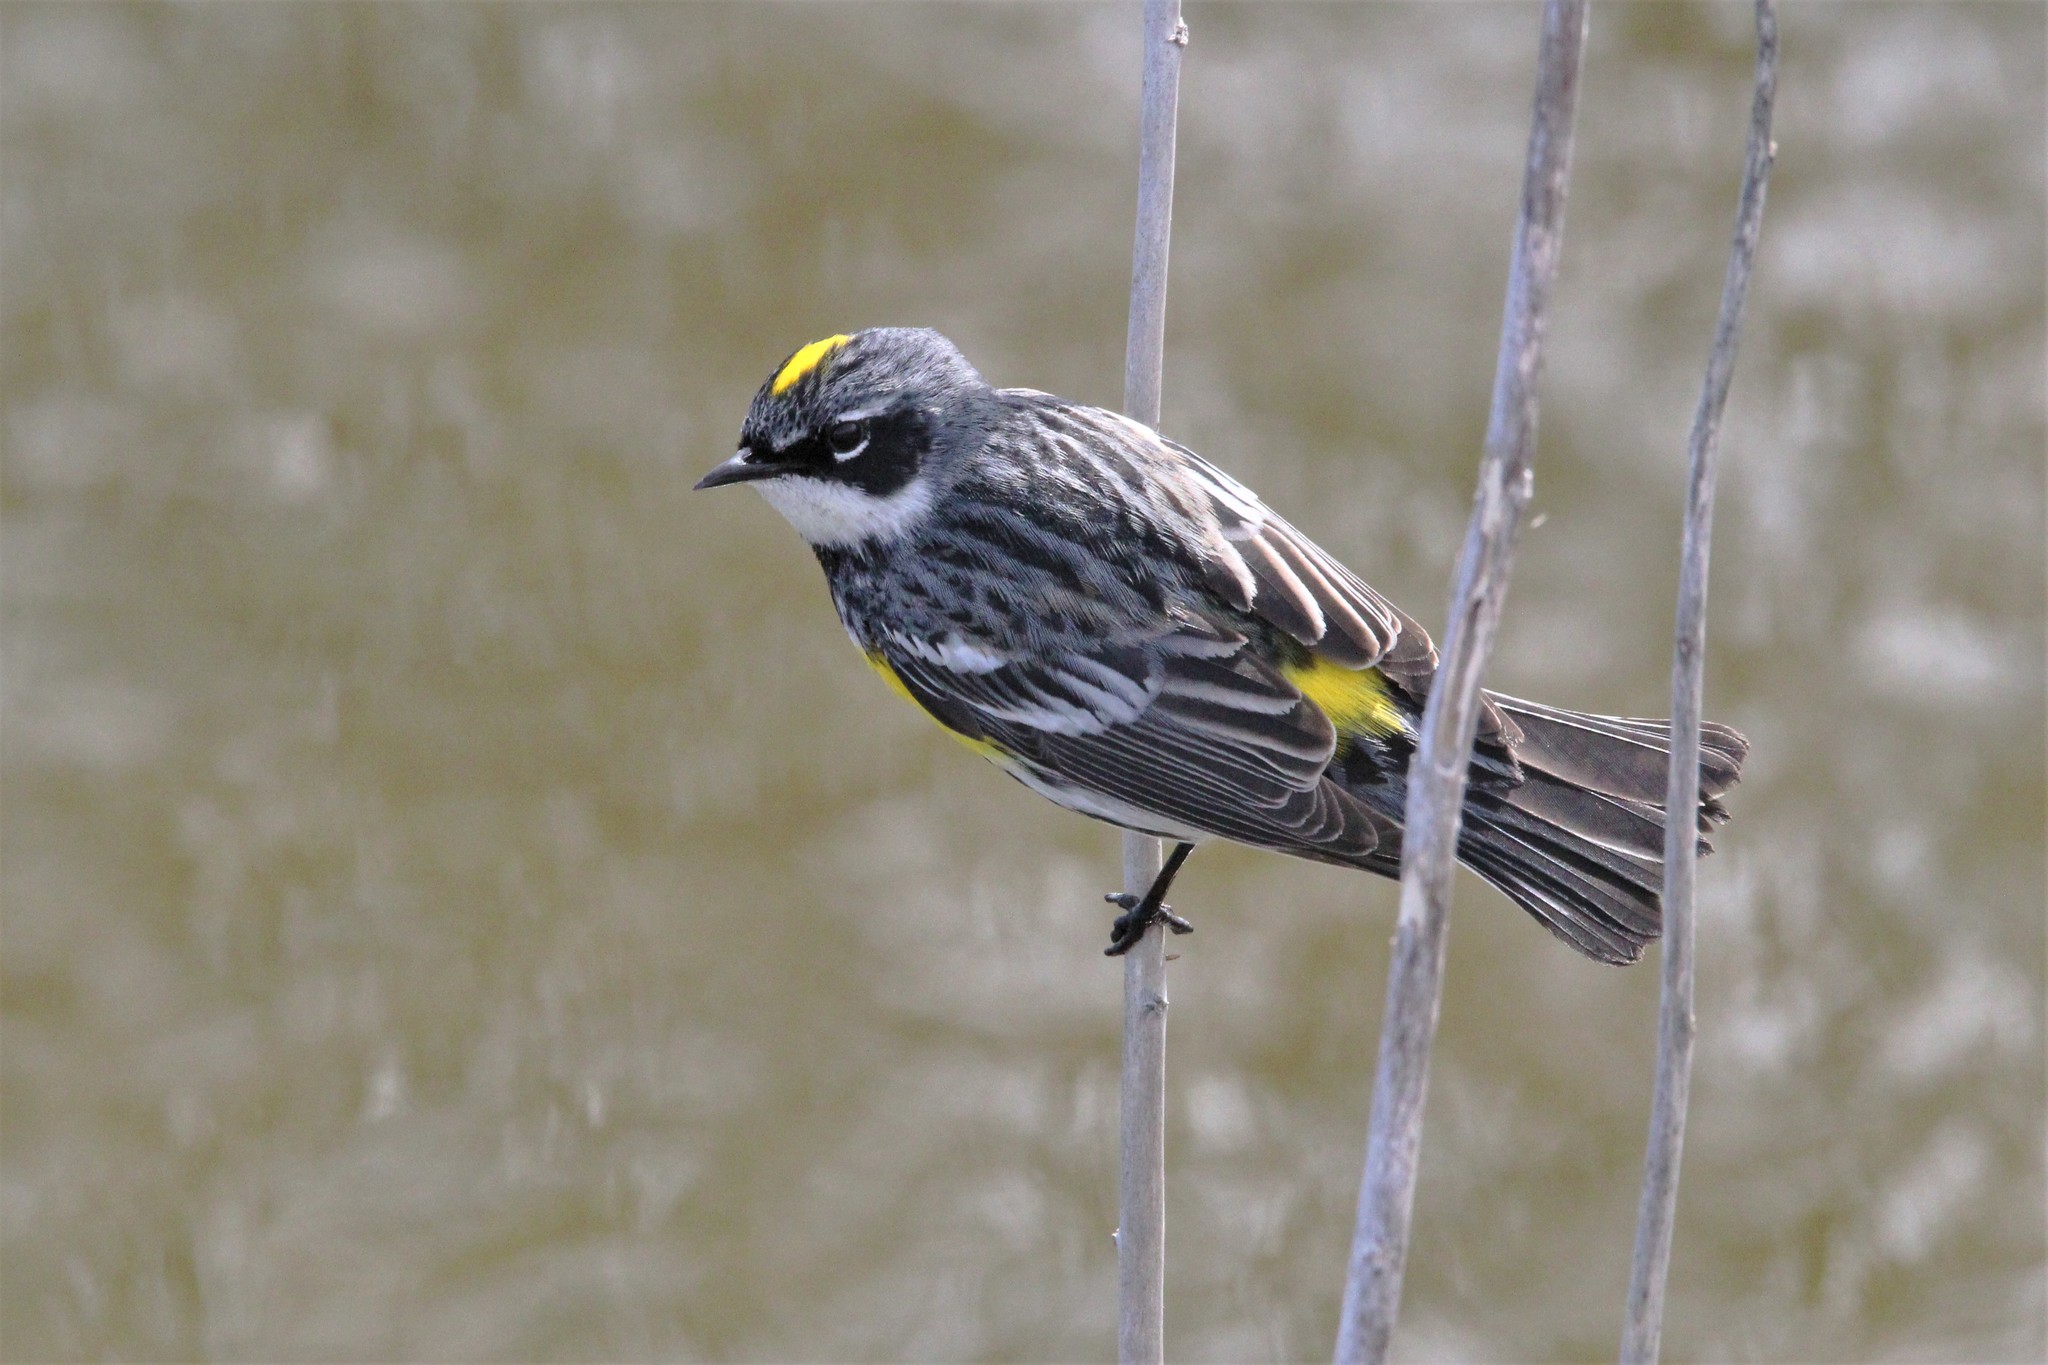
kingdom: Animalia
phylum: Chordata
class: Aves
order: Passeriformes
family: Parulidae
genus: Setophaga
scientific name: Setophaga coronata
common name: Myrtle warbler
